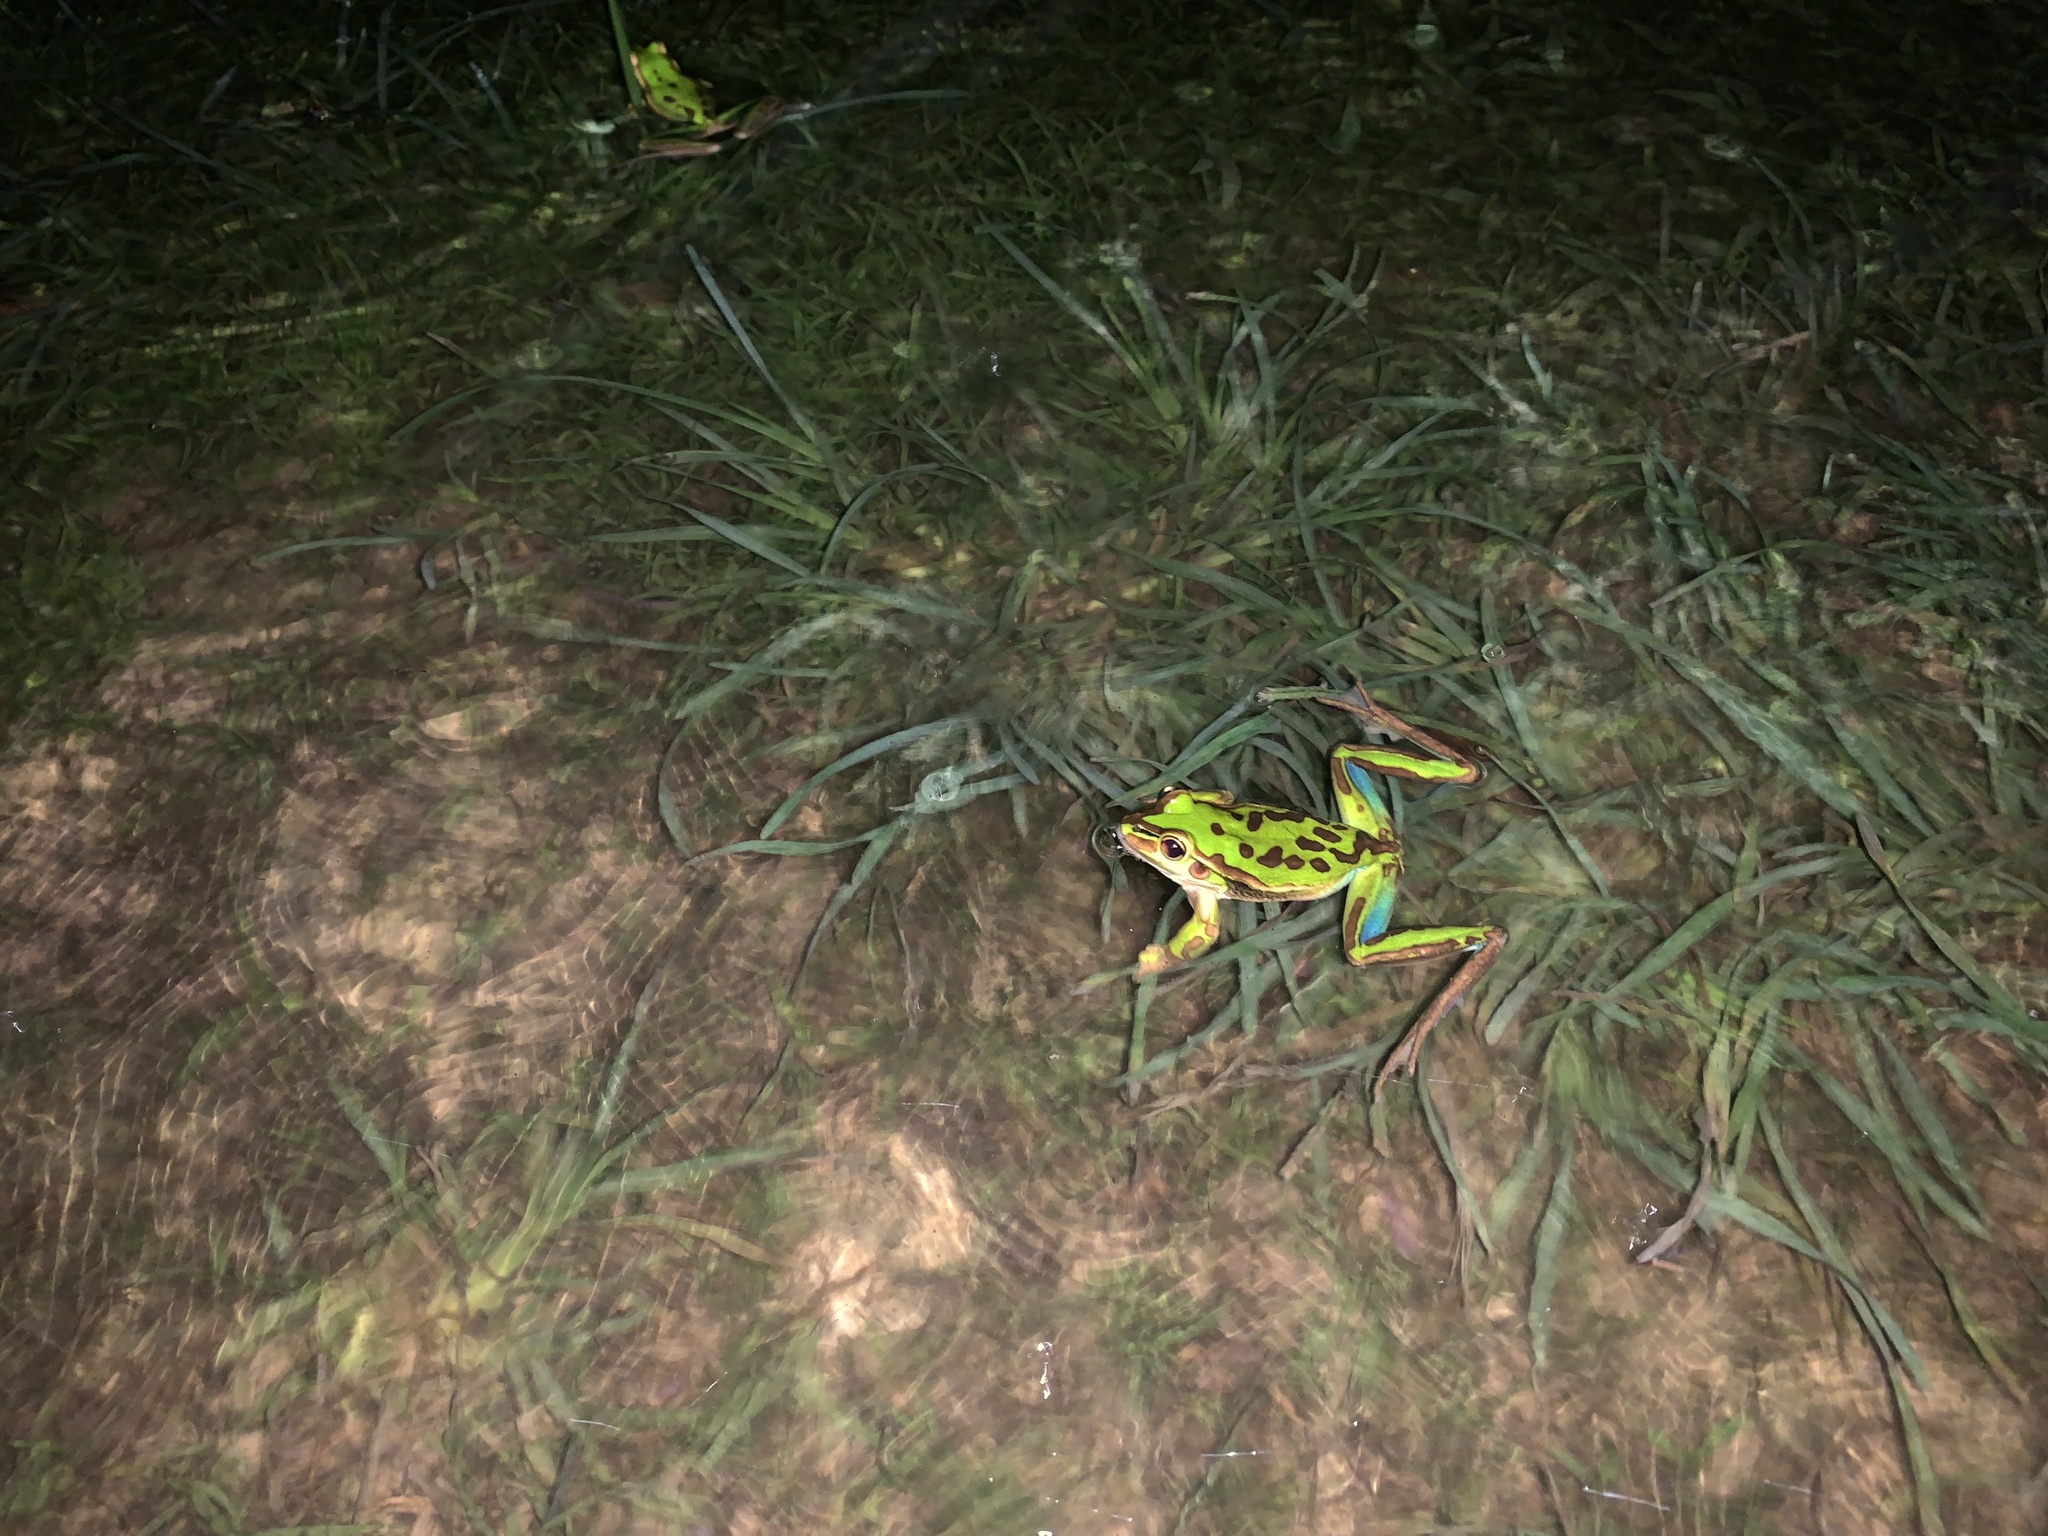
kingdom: Animalia
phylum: Chordata
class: Amphibia
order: Anura
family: Pelodryadidae
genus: Ranoidea
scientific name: Ranoidea aurea
